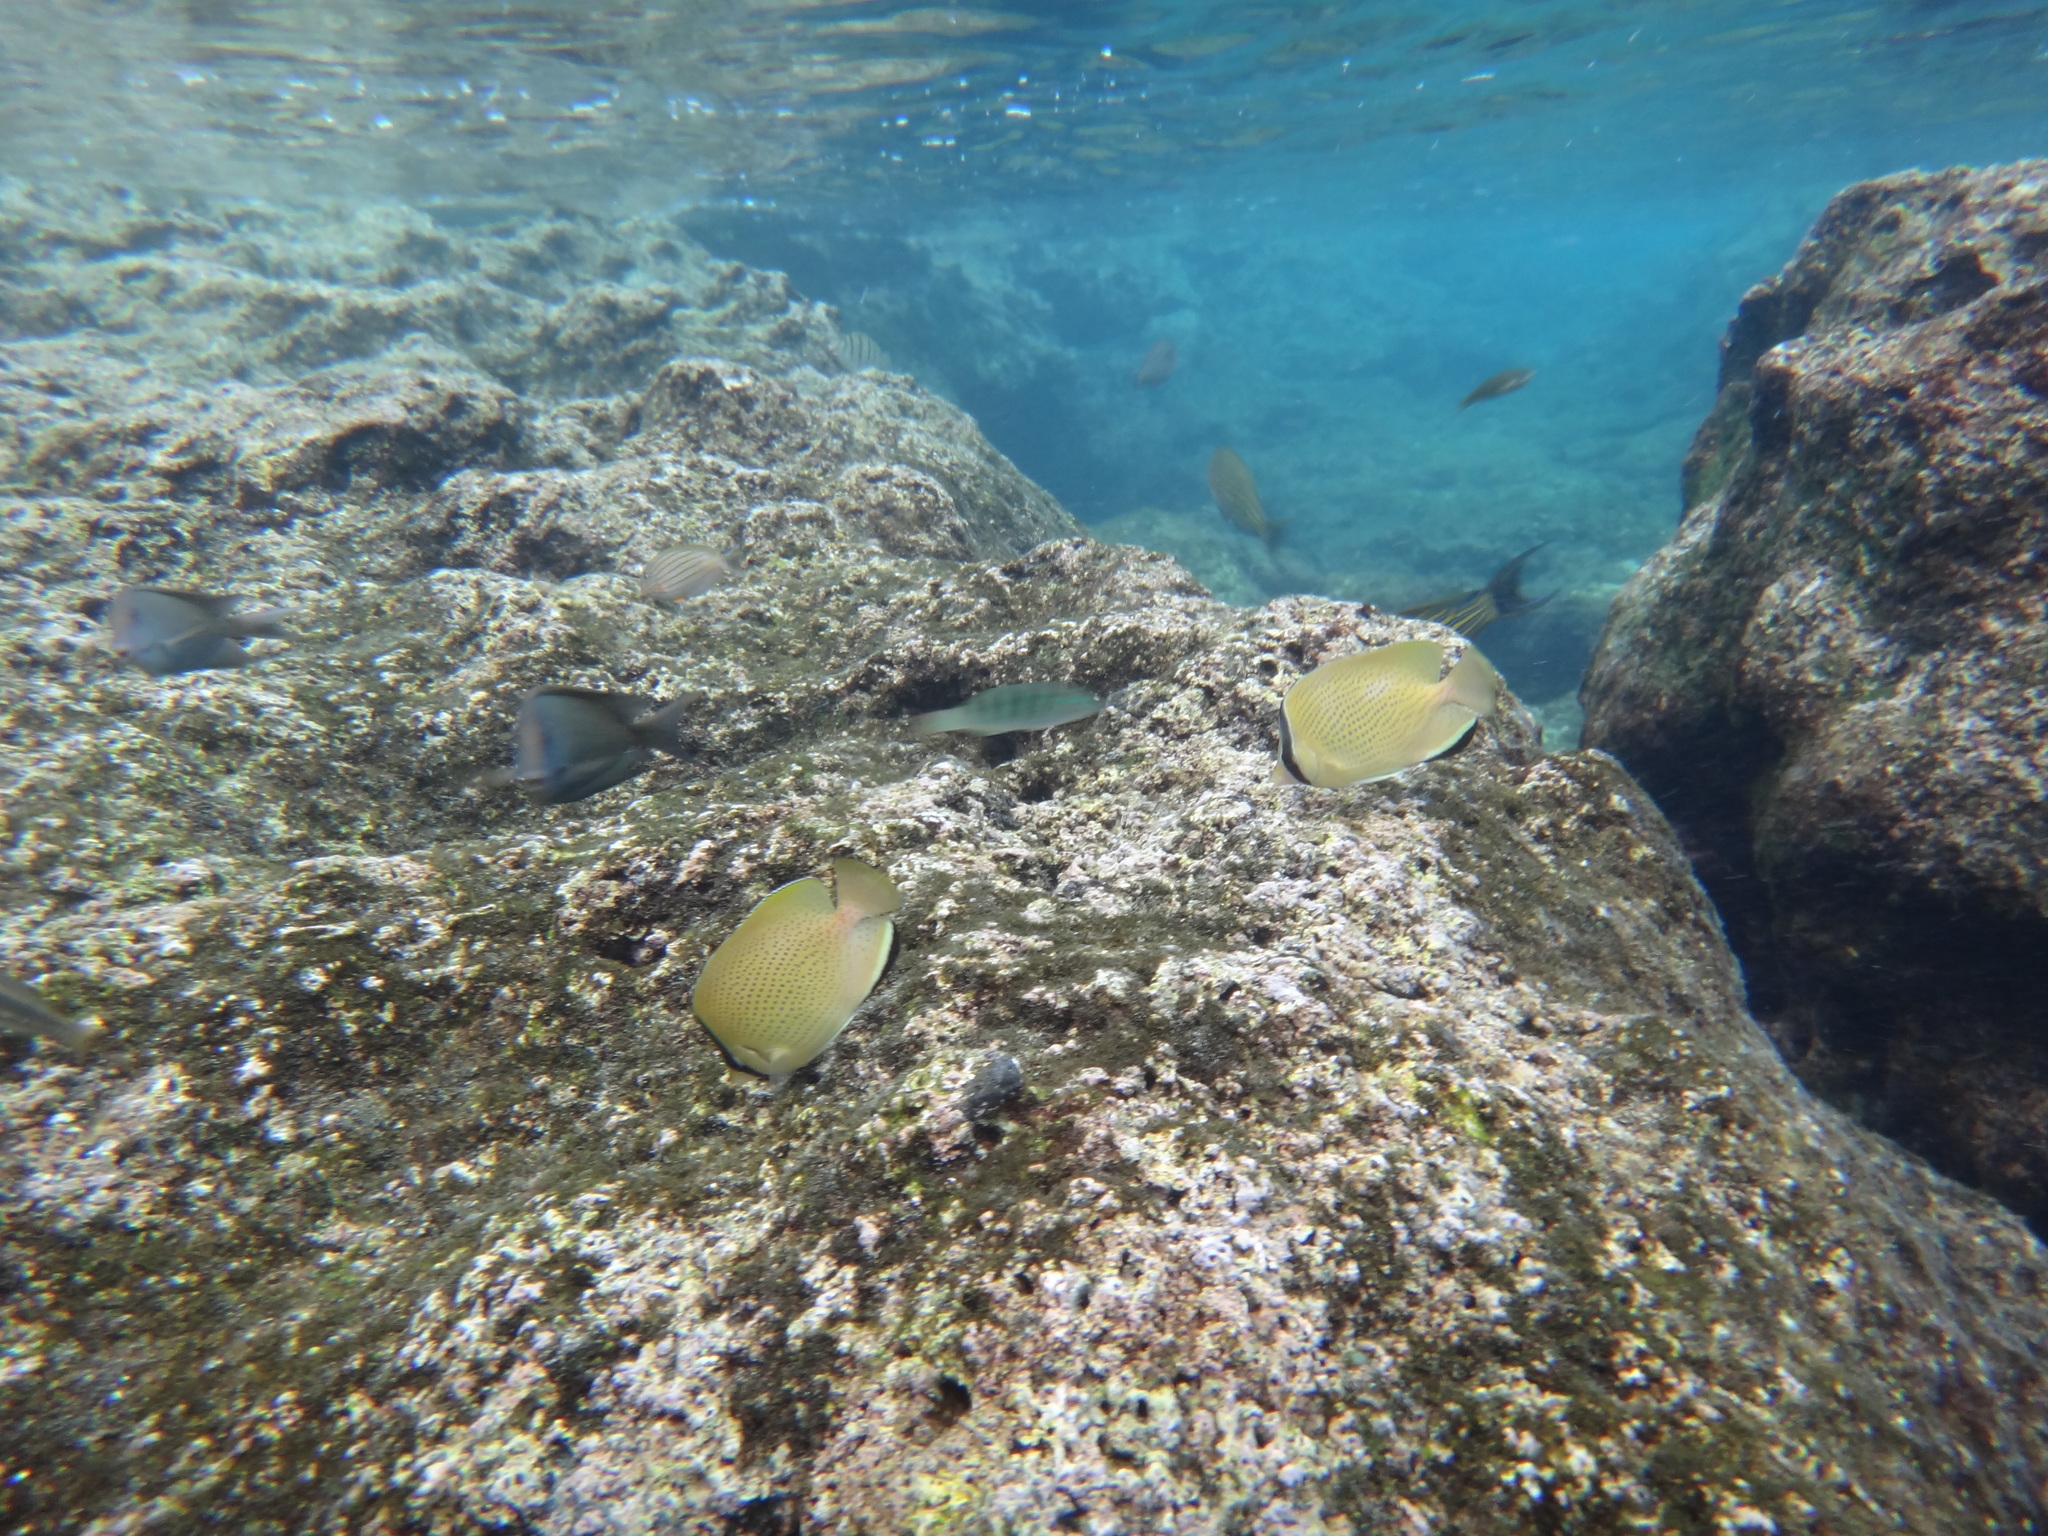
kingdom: Animalia
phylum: Chordata
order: Perciformes
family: Chaetodontidae
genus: Chaetodon
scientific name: Chaetodon citrinellus
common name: Speckled butterflyfish
